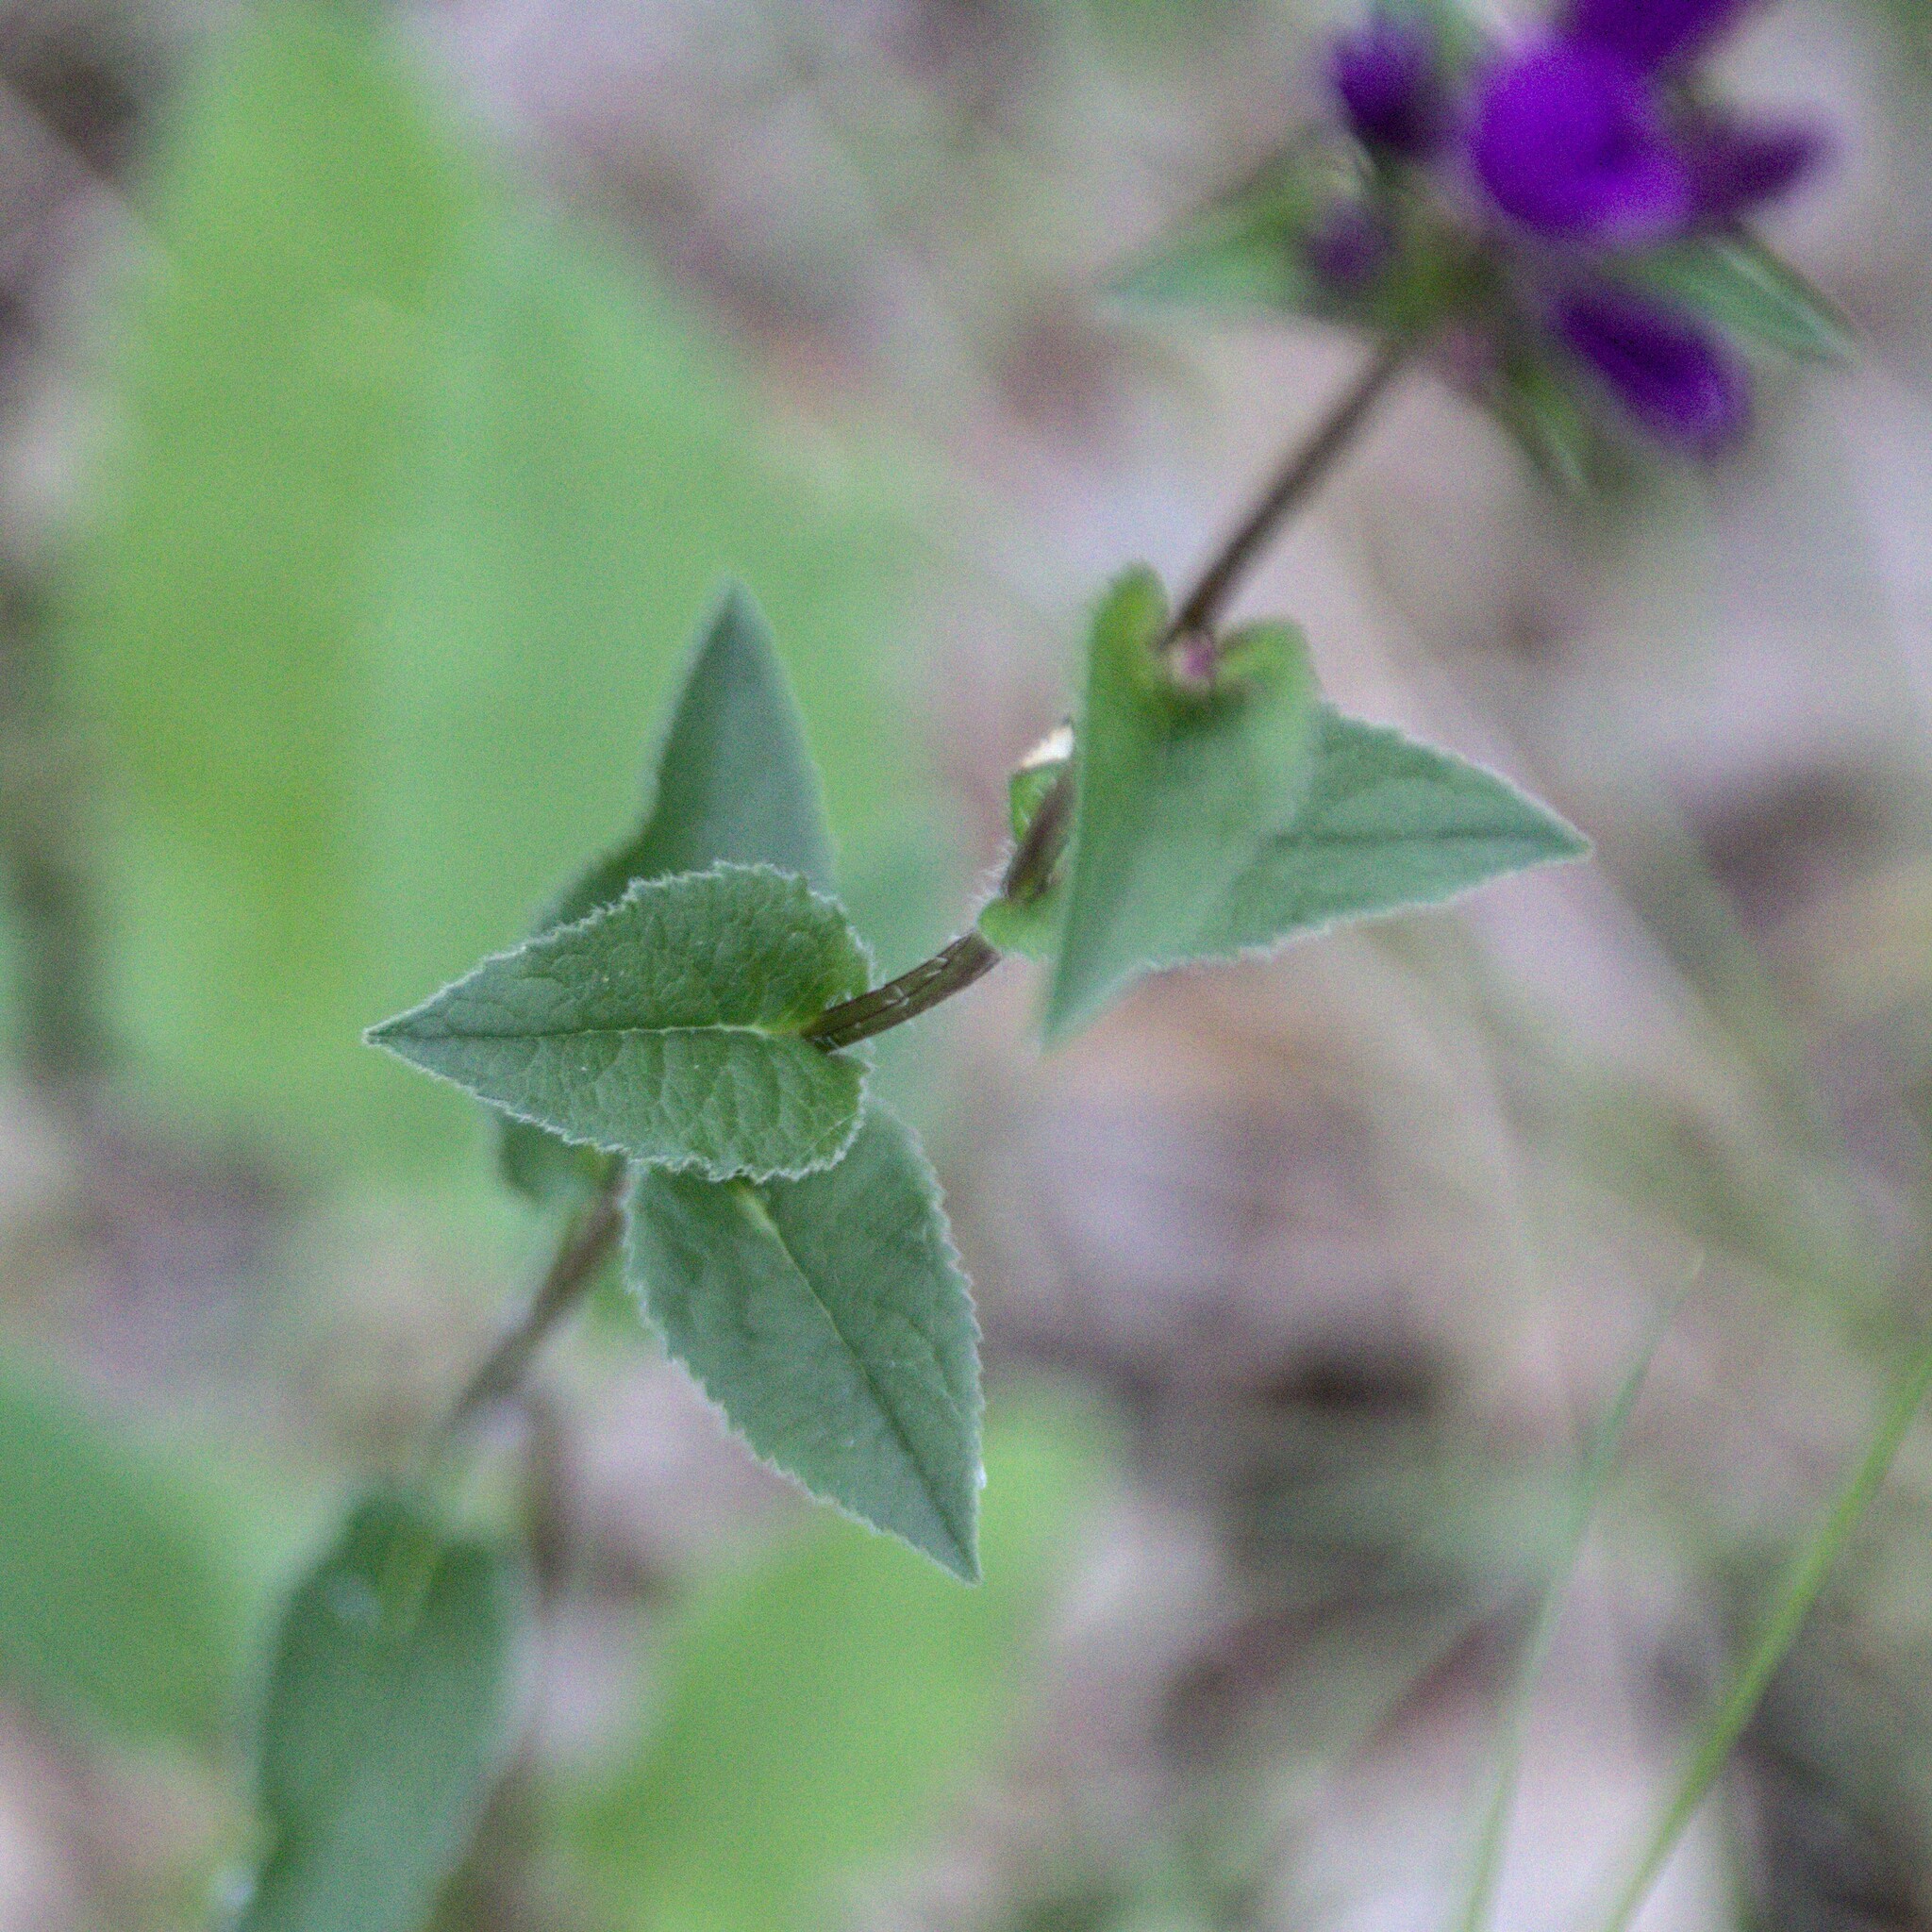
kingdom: Plantae
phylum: Tracheophyta
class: Magnoliopsida
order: Asterales
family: Campanulaceae
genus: Campanula
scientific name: Campanula glomerata
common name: Clustered bellflower
